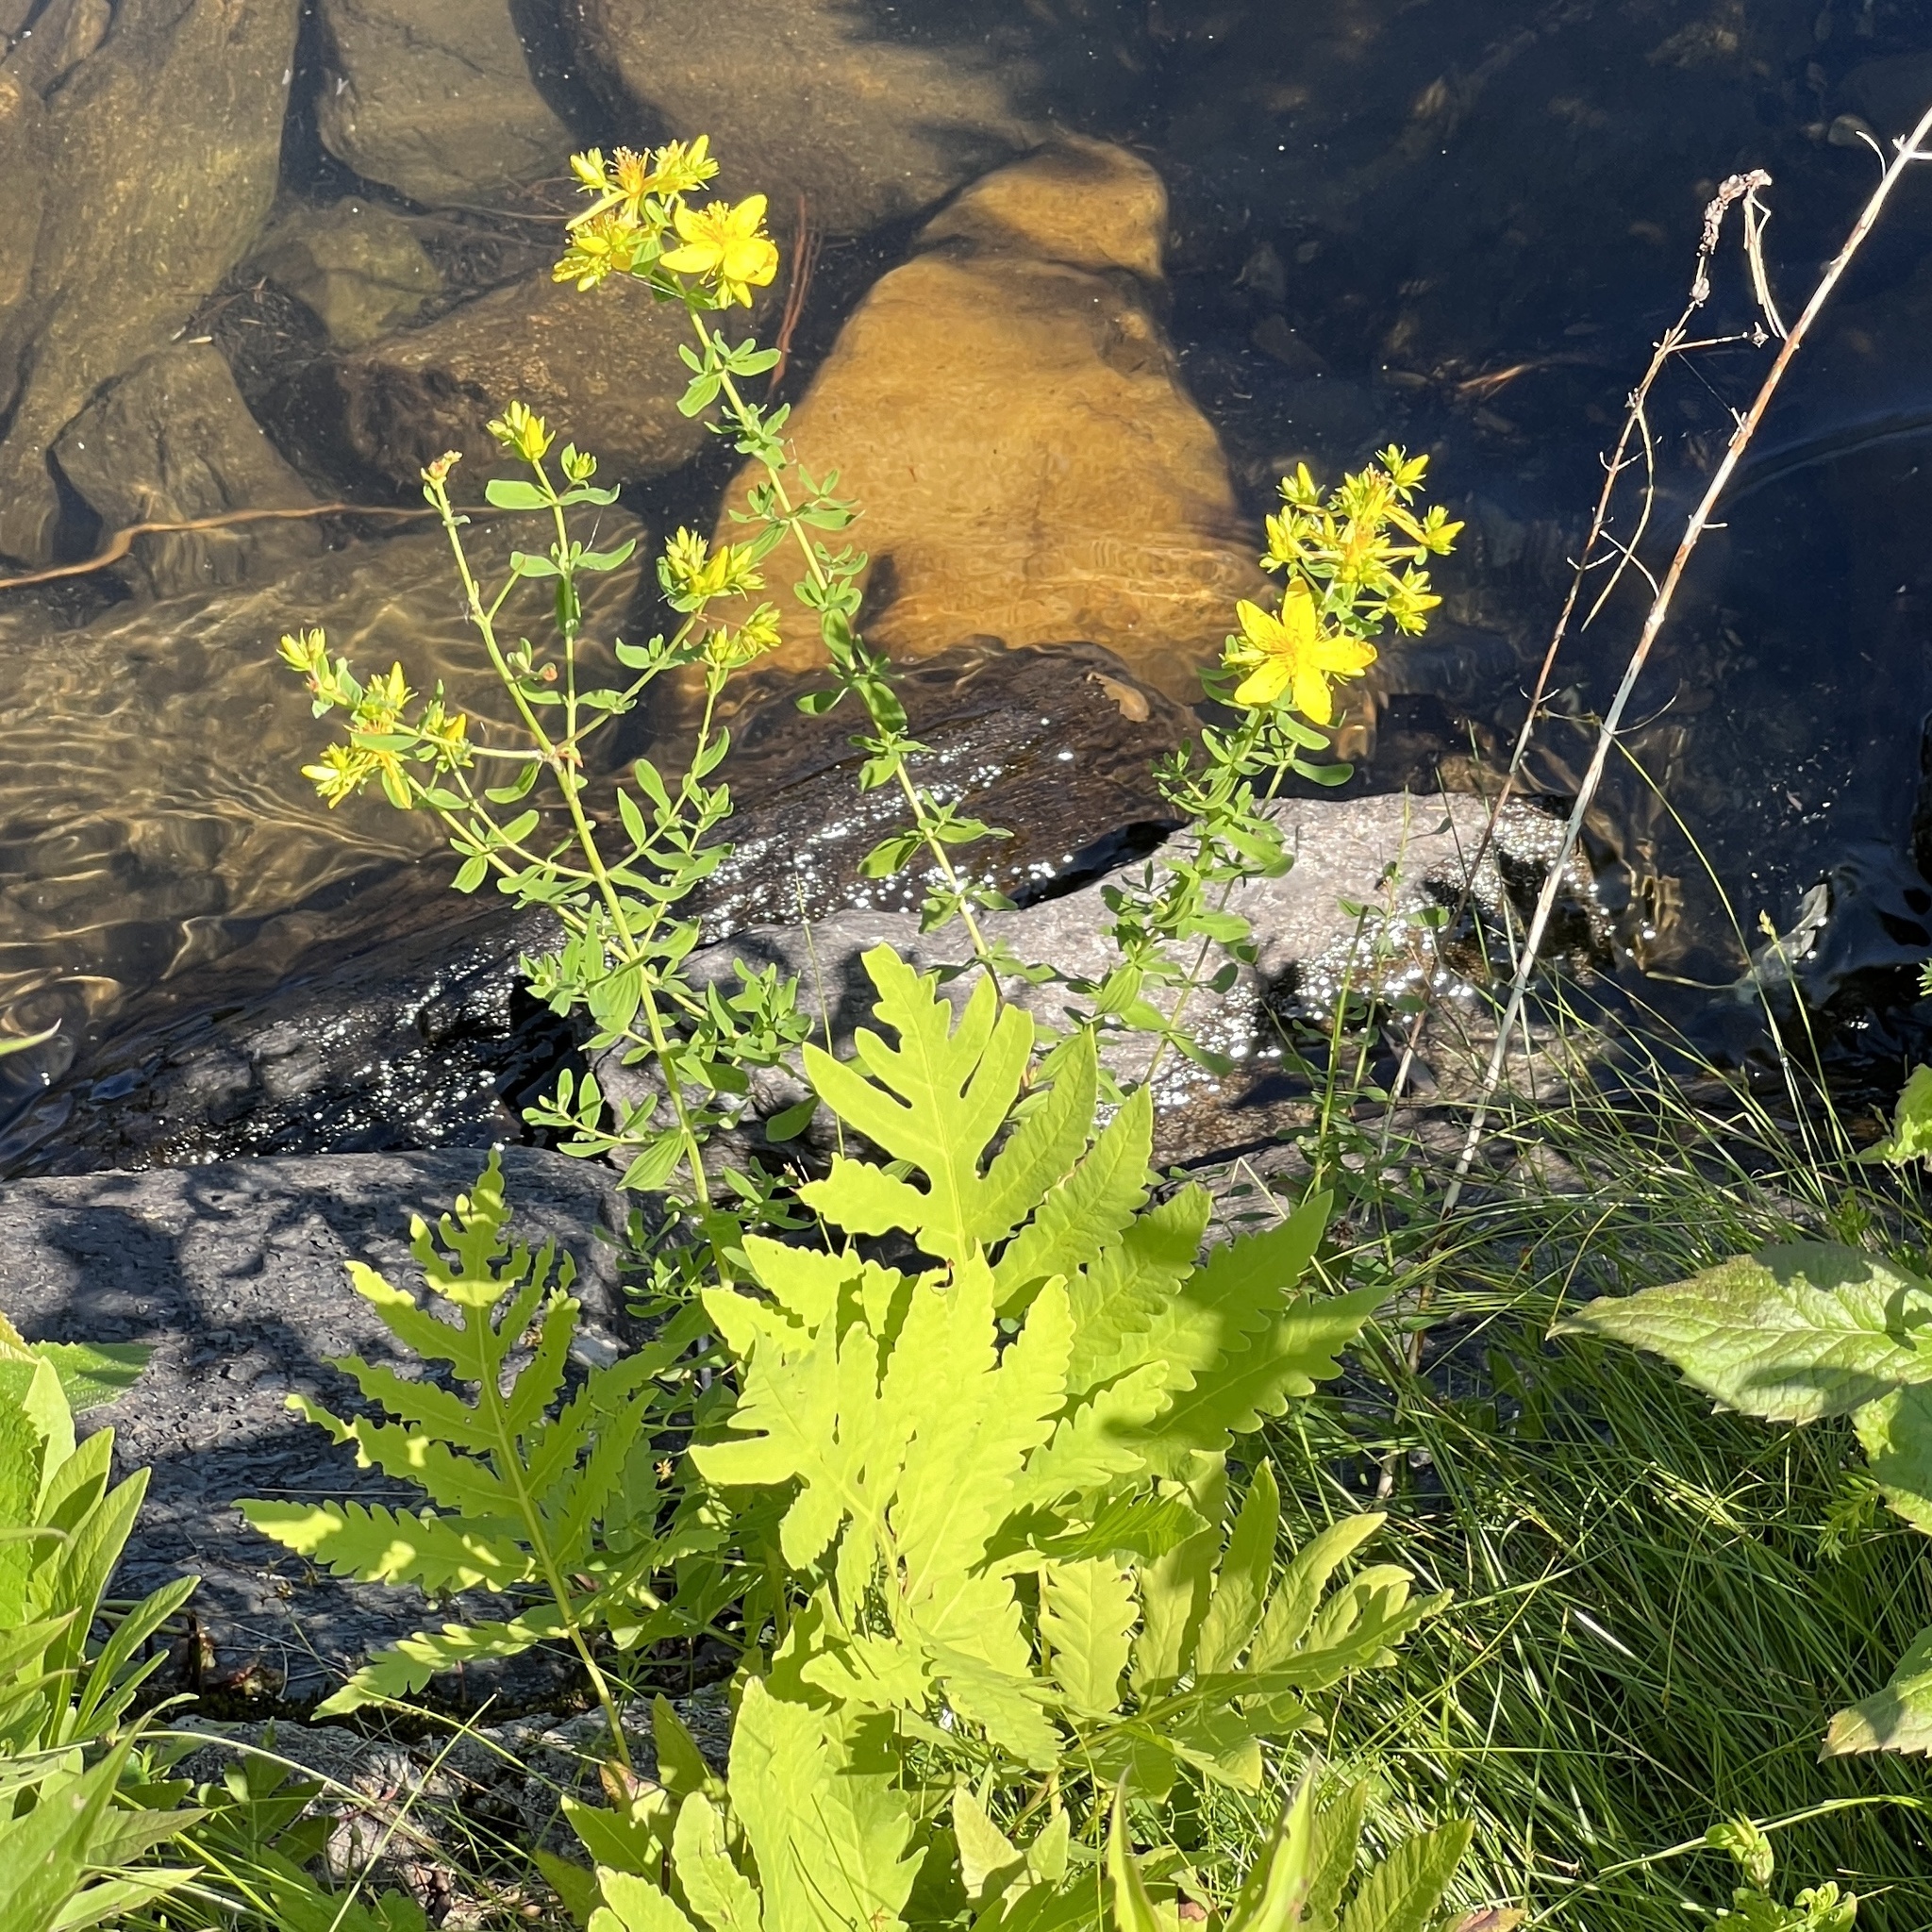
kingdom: Plantae
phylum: Tracheophyta
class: Magnoliopsida
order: Malpighiales
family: Hypericaceae
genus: Hypericum
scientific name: Hypericum perforatum
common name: Common st. johnswort
